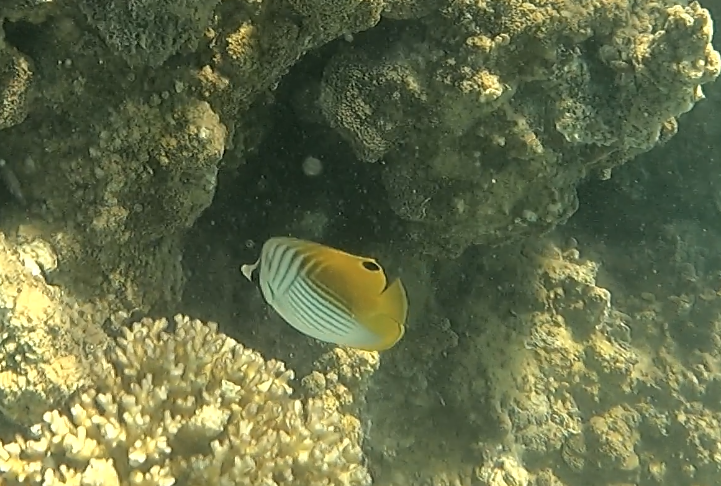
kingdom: Animalia
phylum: Chordata
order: Perciformes
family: Chaetodontidae
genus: Chaetodon
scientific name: Chaetodon auriga
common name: Threadfin butterflyfish
